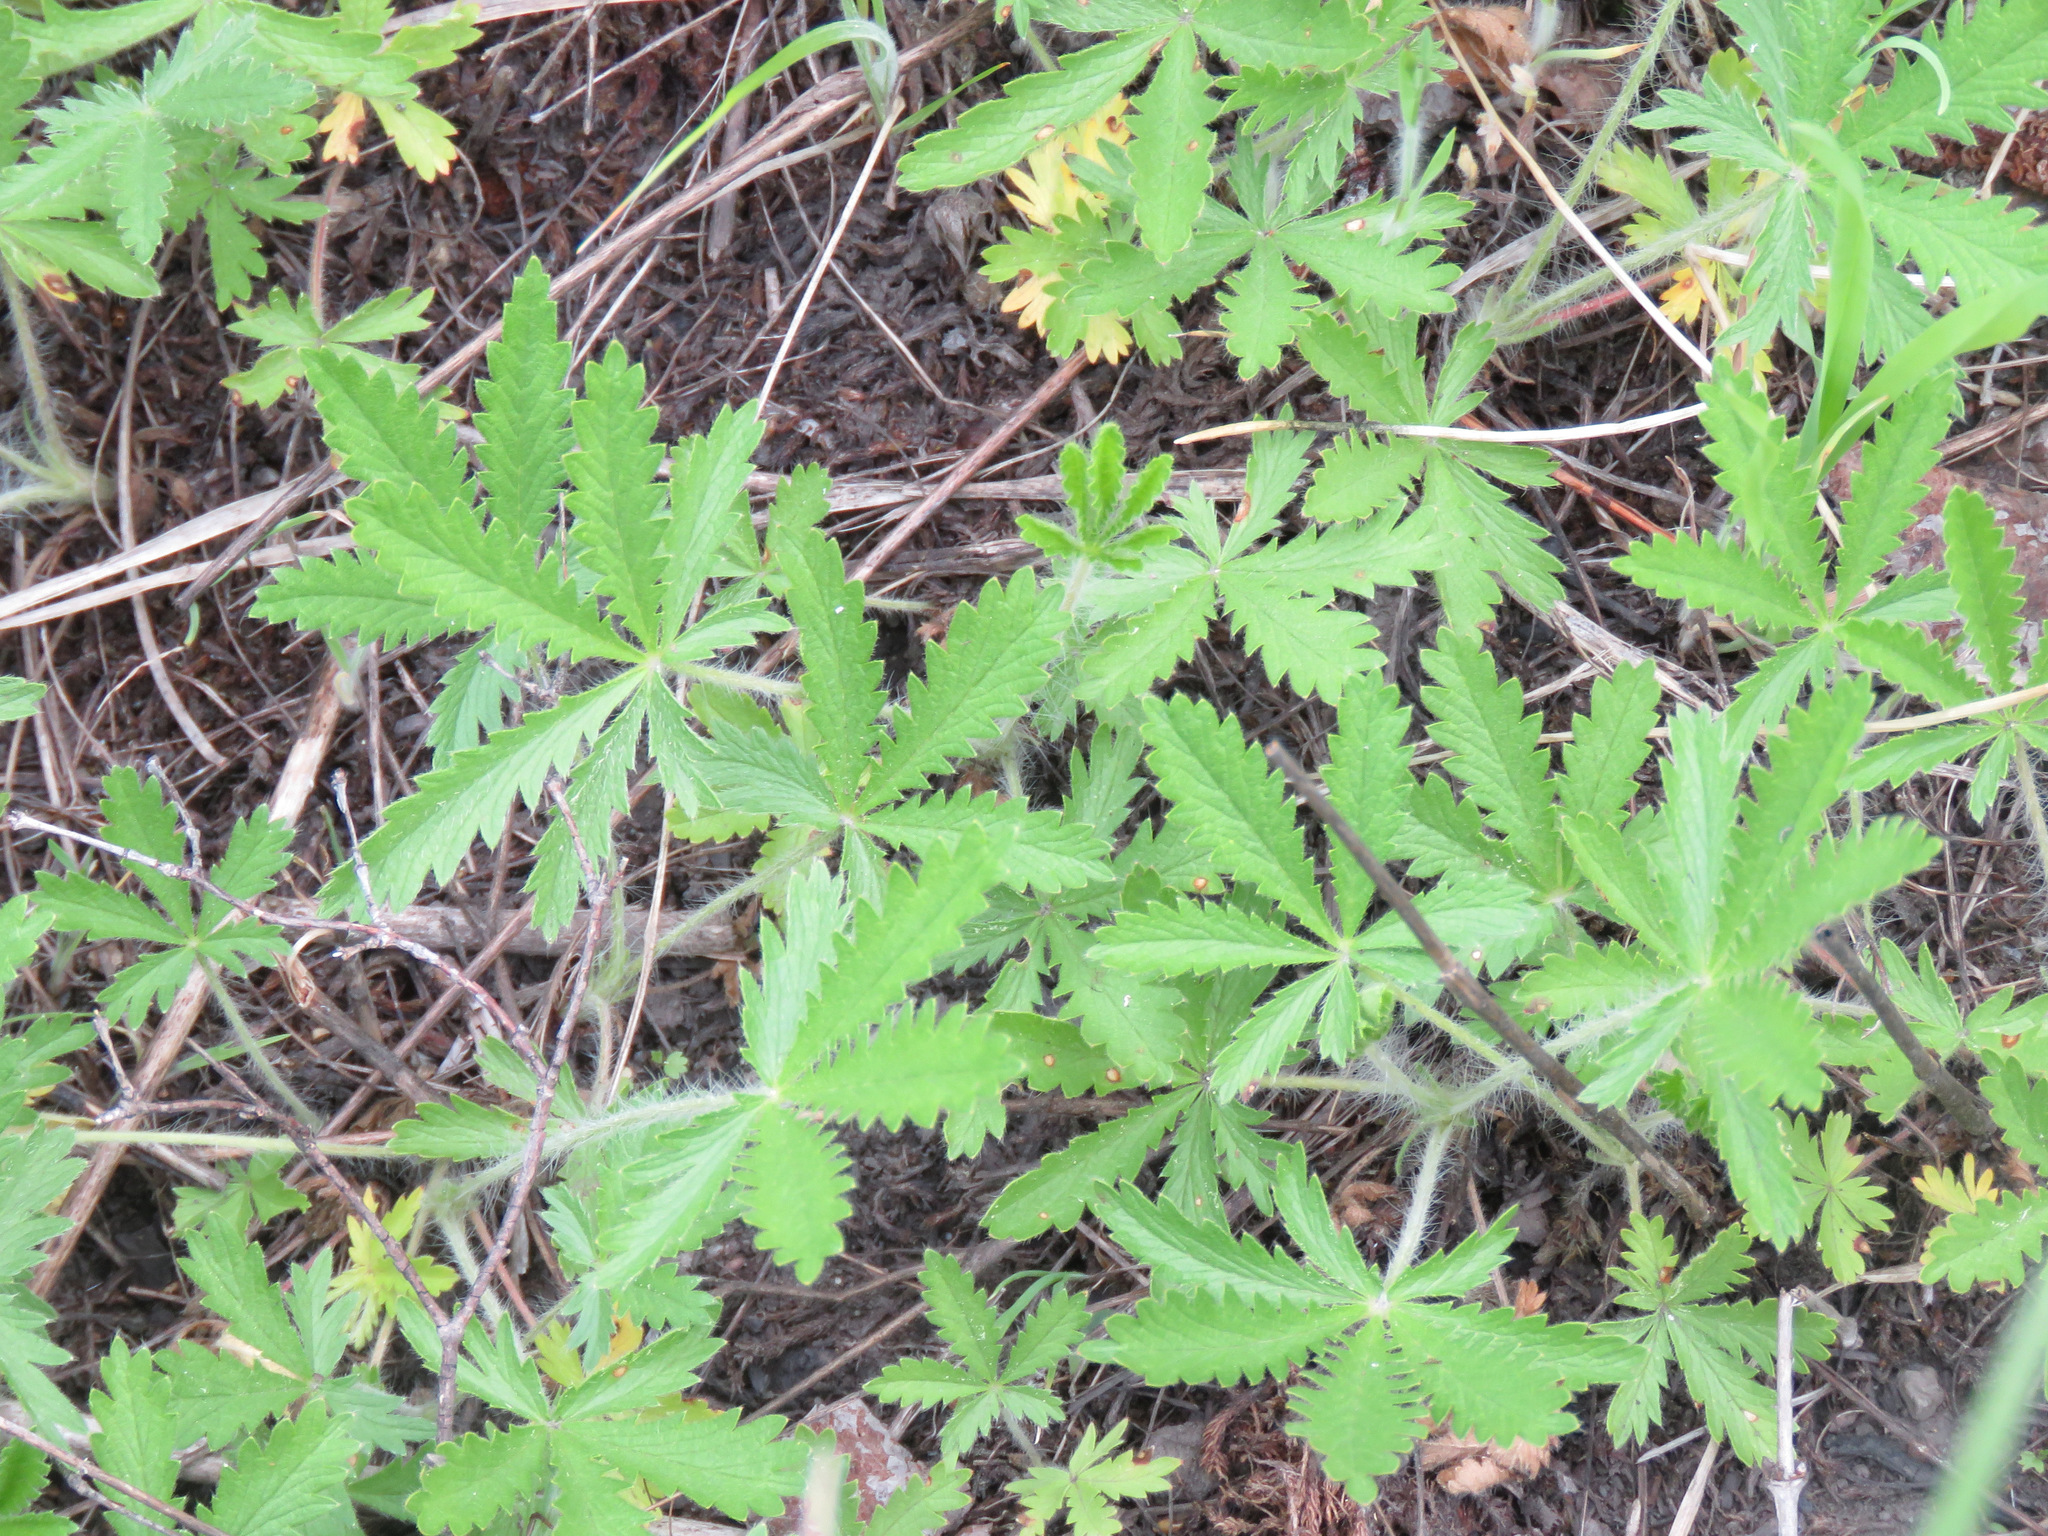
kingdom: Plantae
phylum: Tracheophyta
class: Magnoliopsida
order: Rosales
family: Rosaceae
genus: Potentilla
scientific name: Potentilla recta
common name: Sulphur cinquefoil
